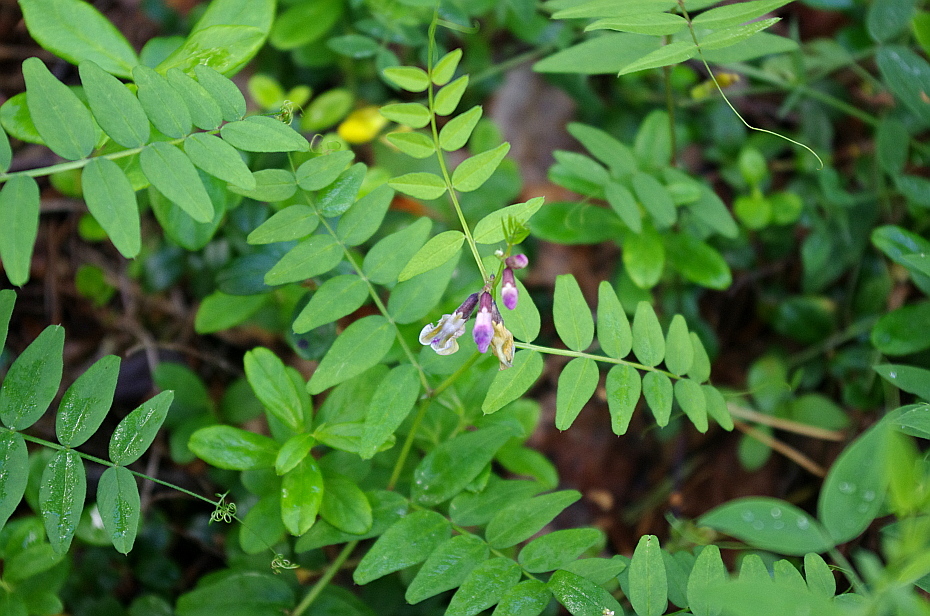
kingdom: Plantae
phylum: Tracheophyta
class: Magnoliopsida
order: Fabales
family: Fabaceae
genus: Vicia
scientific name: Vicia sepium
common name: Bush vetch
